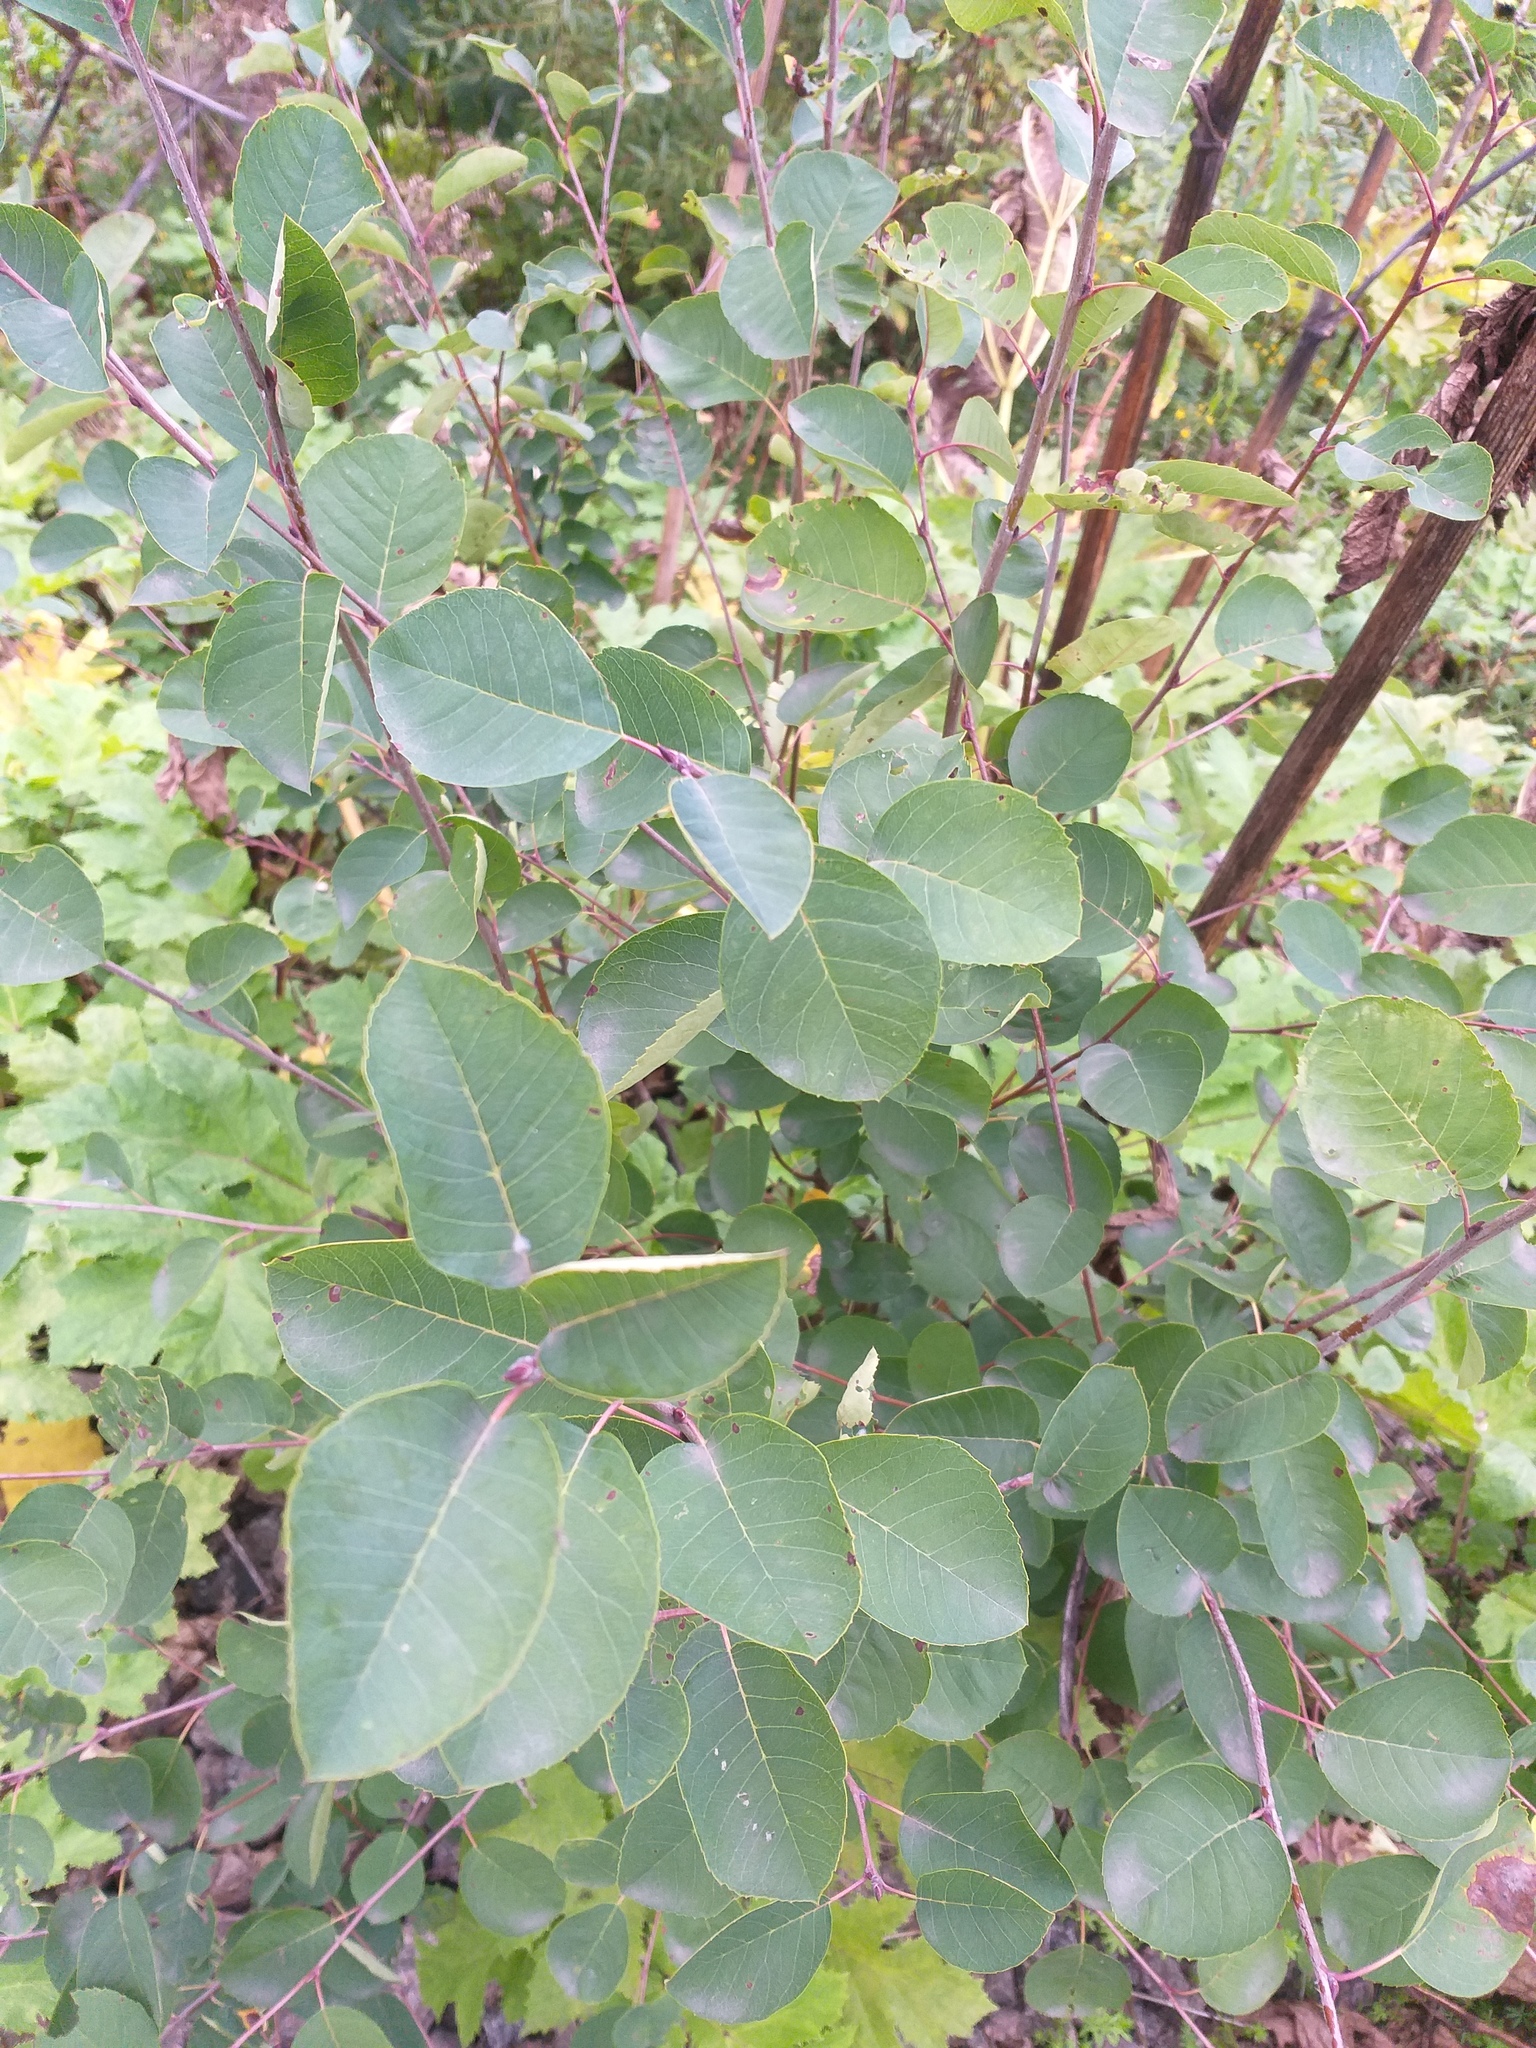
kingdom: Plantae
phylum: Tracheophyta
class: Magnoliopsida
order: Rosales
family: Rosaceae
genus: Amelanchier
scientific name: Amelanchier
